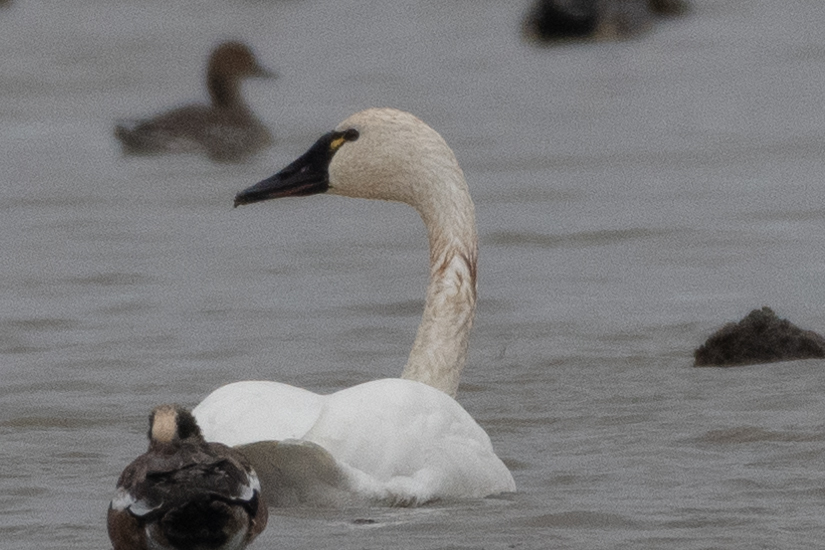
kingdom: Animalia
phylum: Chordata
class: Aves
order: Anseriformes
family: Anatidae
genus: Cygnus
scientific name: Cygnus columbianus
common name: Tundra swan
